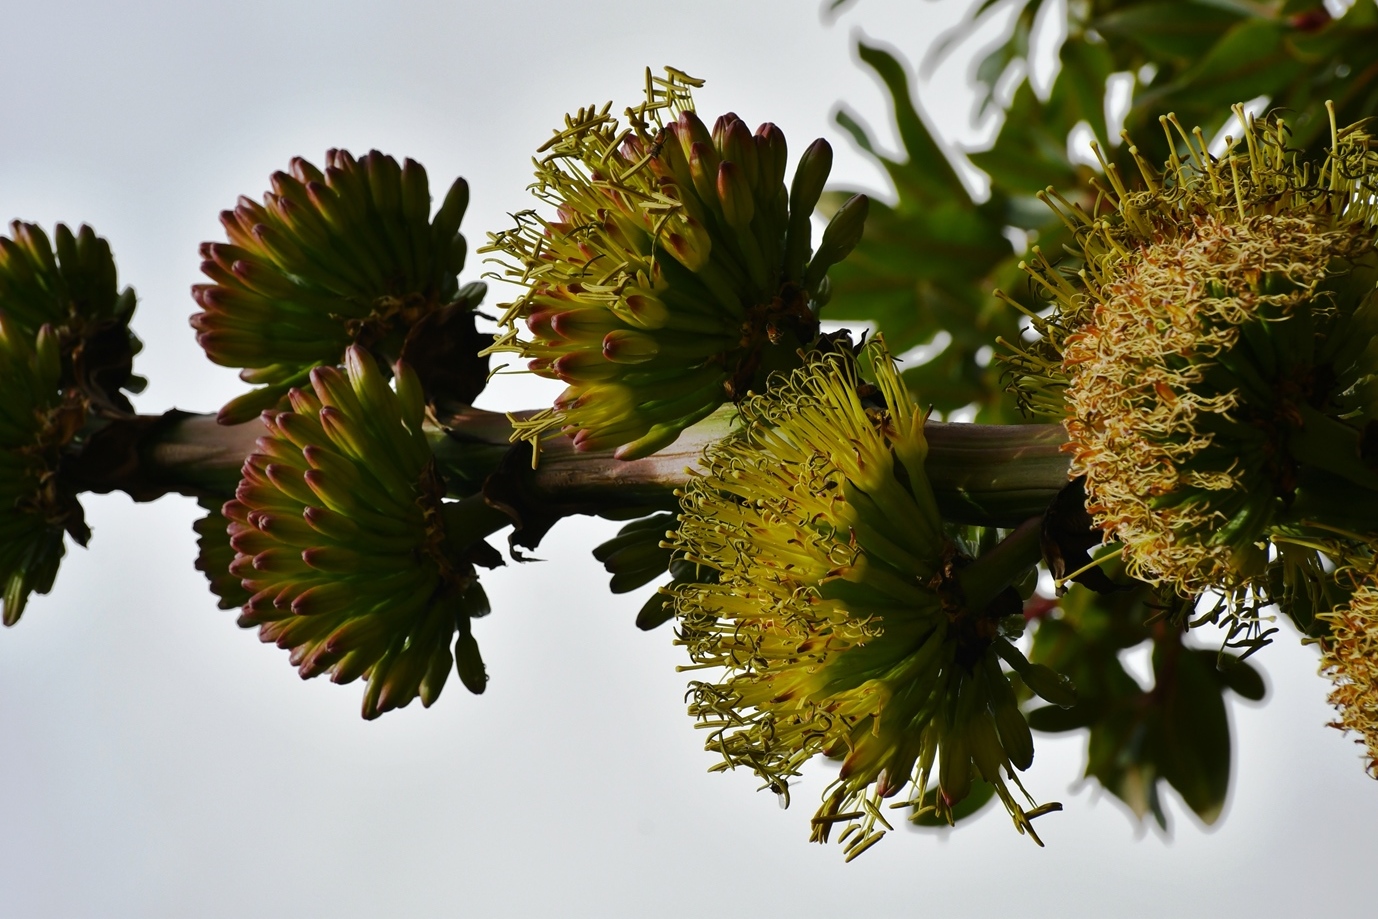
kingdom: Plantae
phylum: Tracheophyta
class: Liliopsida
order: Asparagales
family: Asparagaceae
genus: Agave
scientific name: Agave congesta
